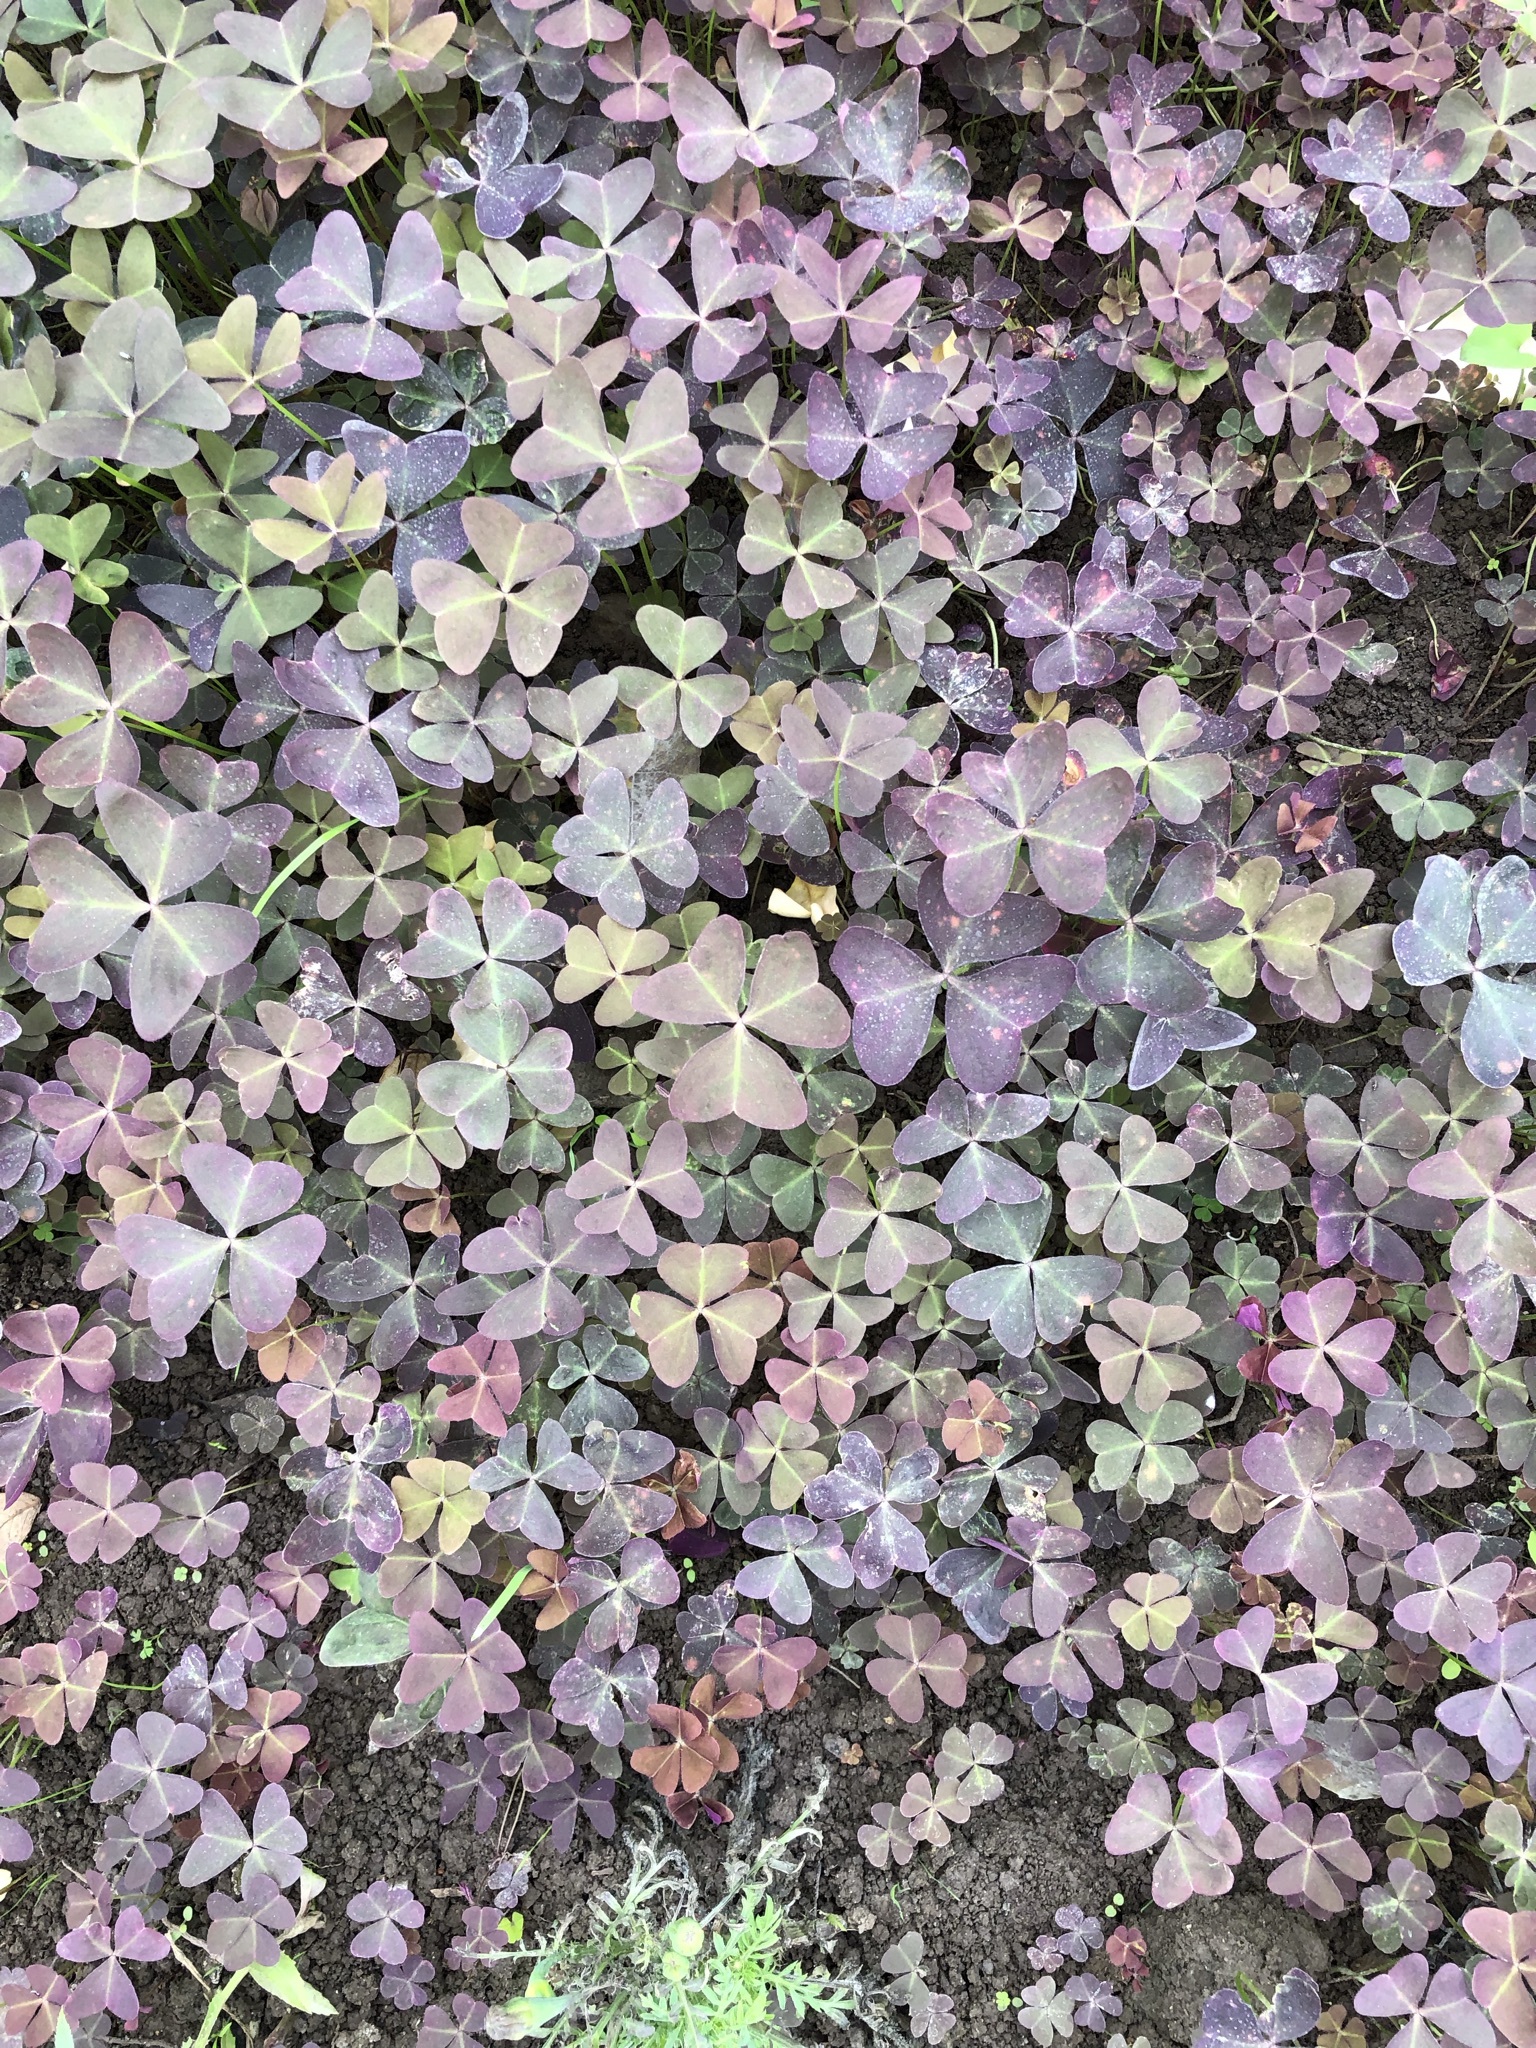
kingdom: Plantae
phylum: Tracheophyta
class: Magnoliopsida
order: Oxalidales
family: Oxalidaceae
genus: Oxalis
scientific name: Oxalis triangularis
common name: Wood sorrel
